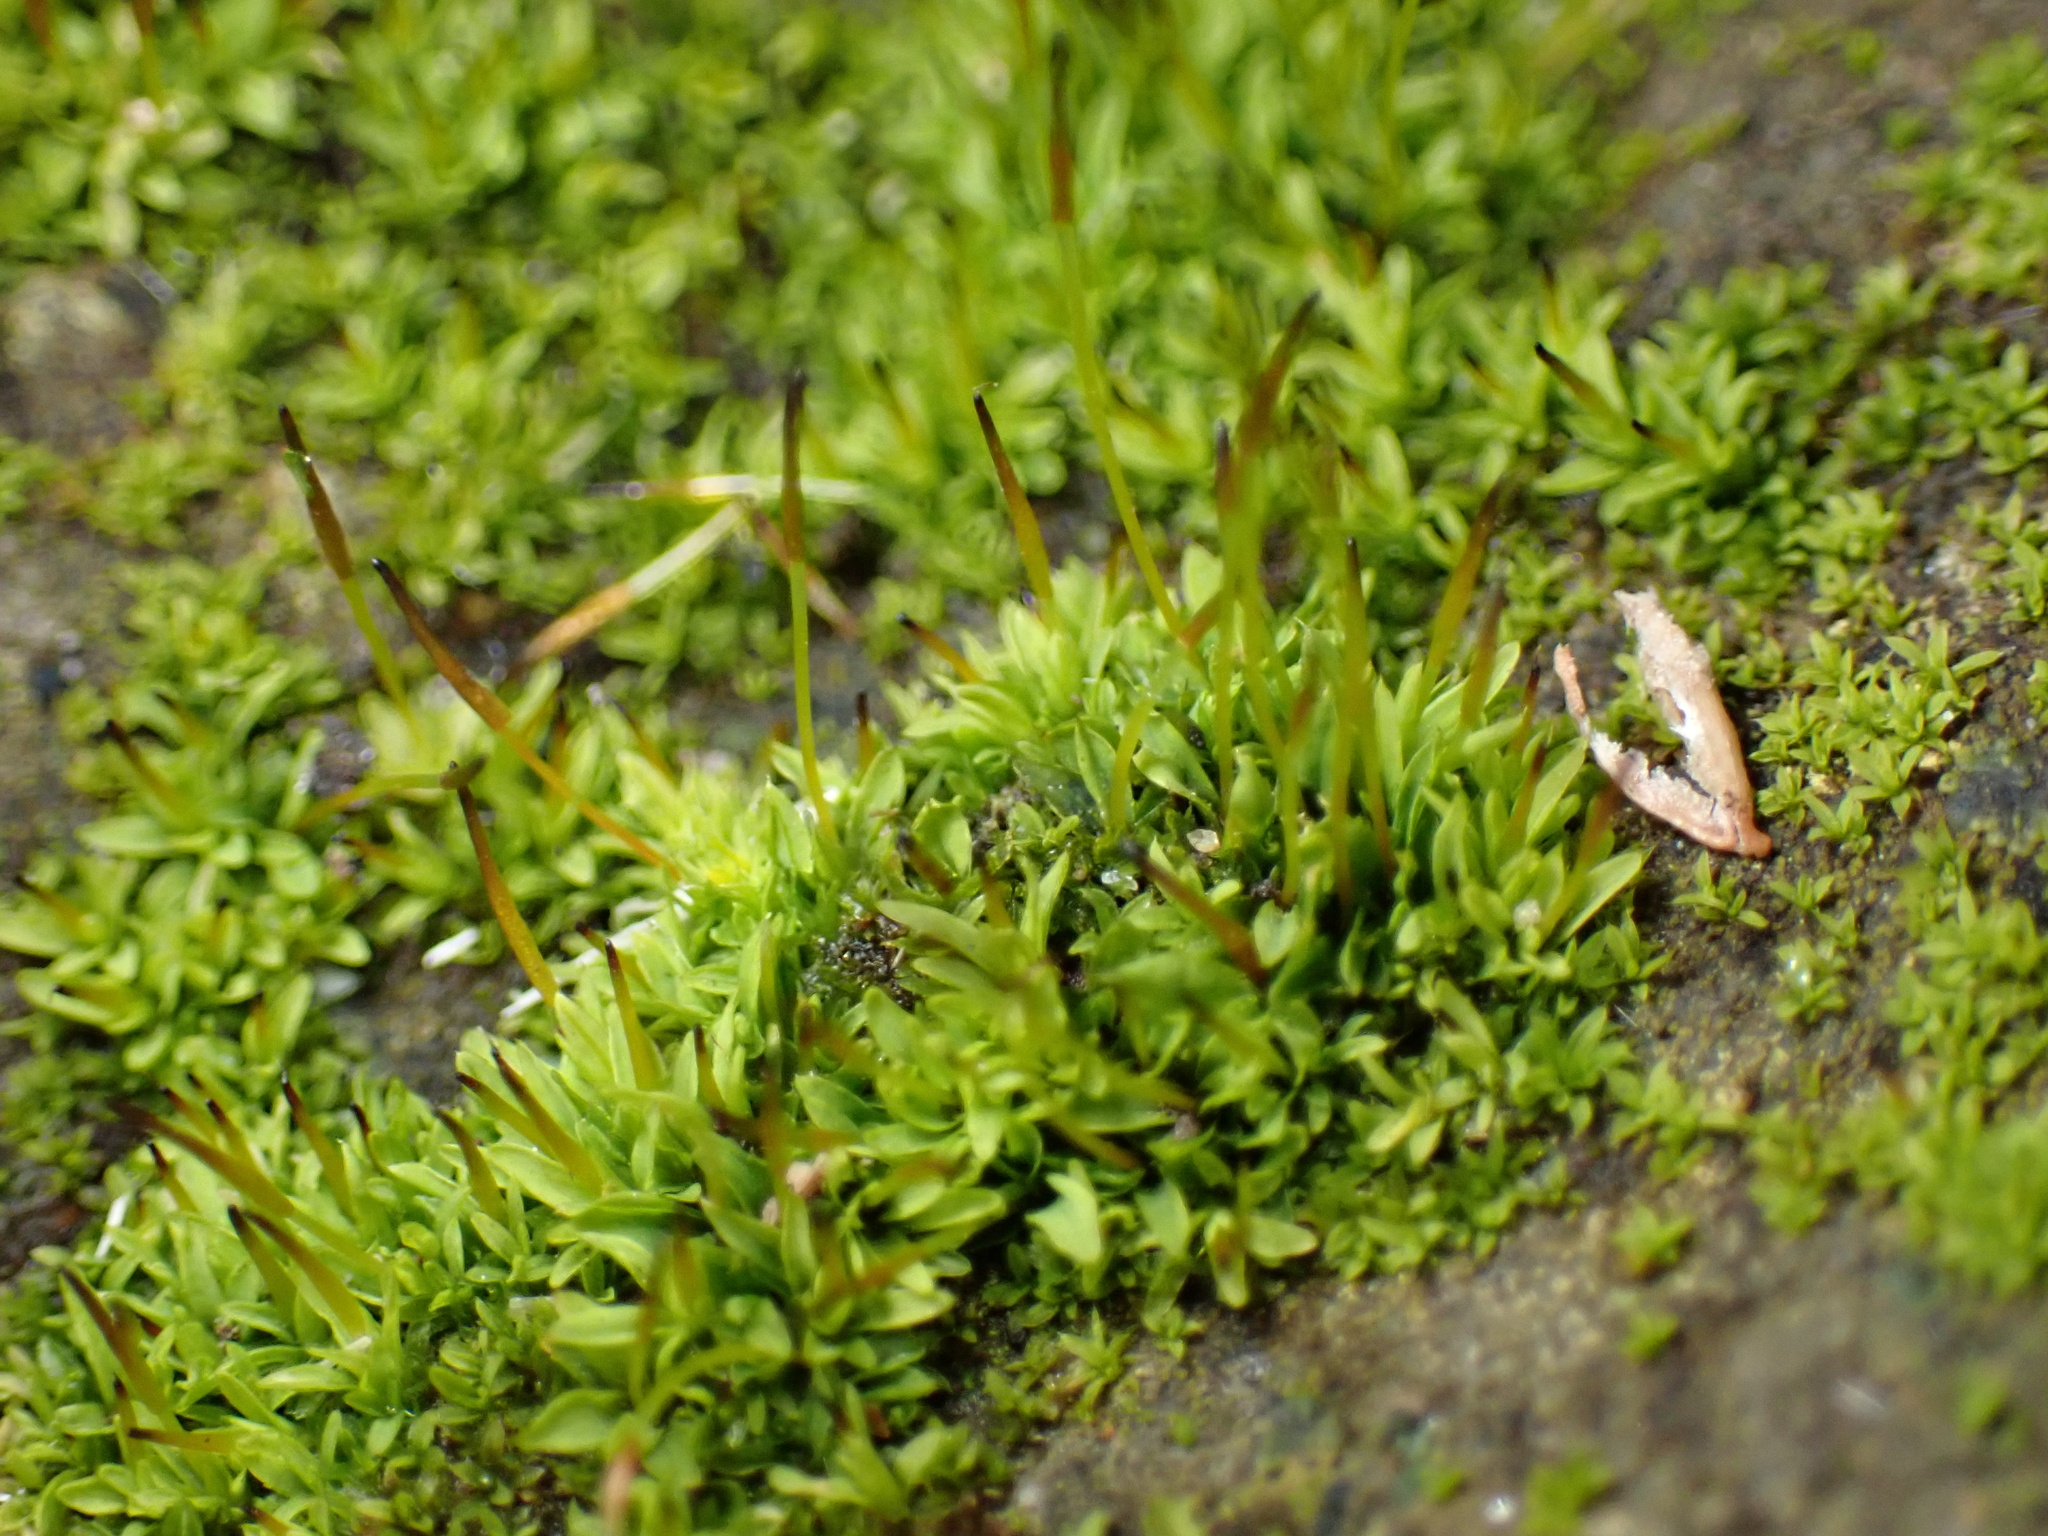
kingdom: Plantae
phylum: Bryophyta
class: Bryopsida
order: Pottiales
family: Pottiaceae
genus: Tortula
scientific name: Tortula muralis
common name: Wall screw-moss
